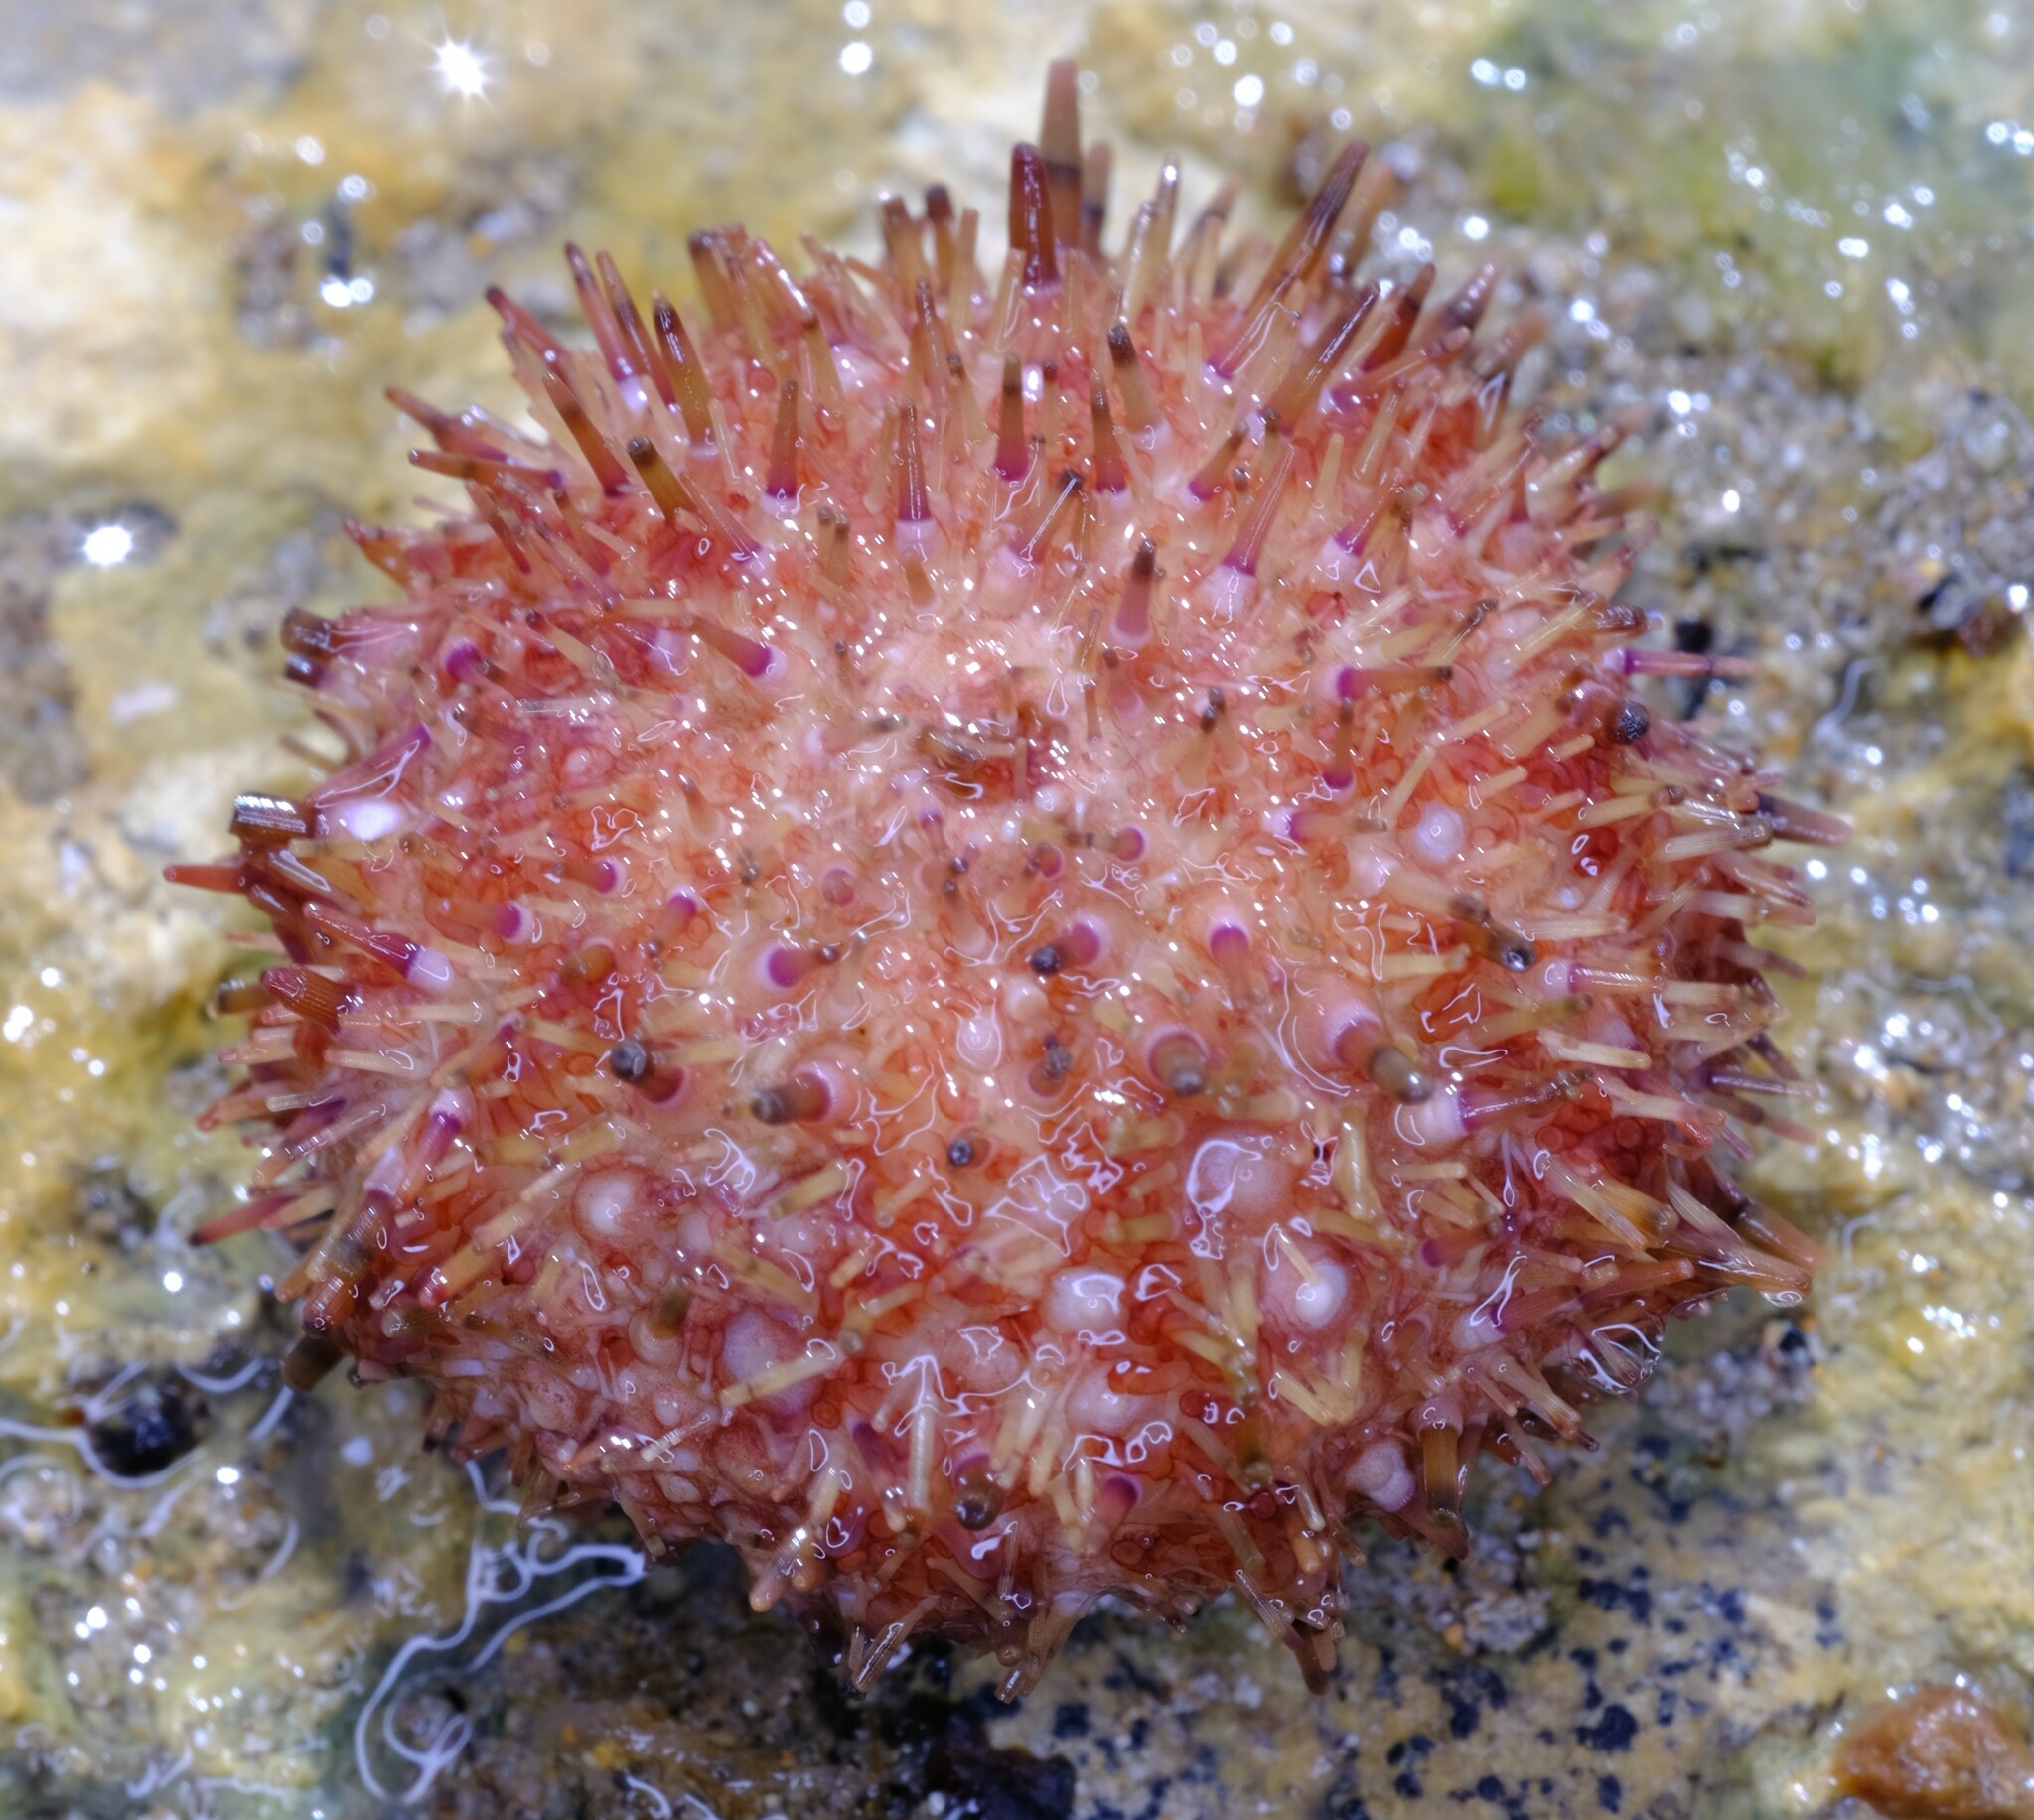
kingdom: Animalia
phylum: Echinodermata
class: Echinoidea
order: Camarodonta
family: Echinometridae
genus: Heliocidaris
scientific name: Heliocidaris erythrogramma
